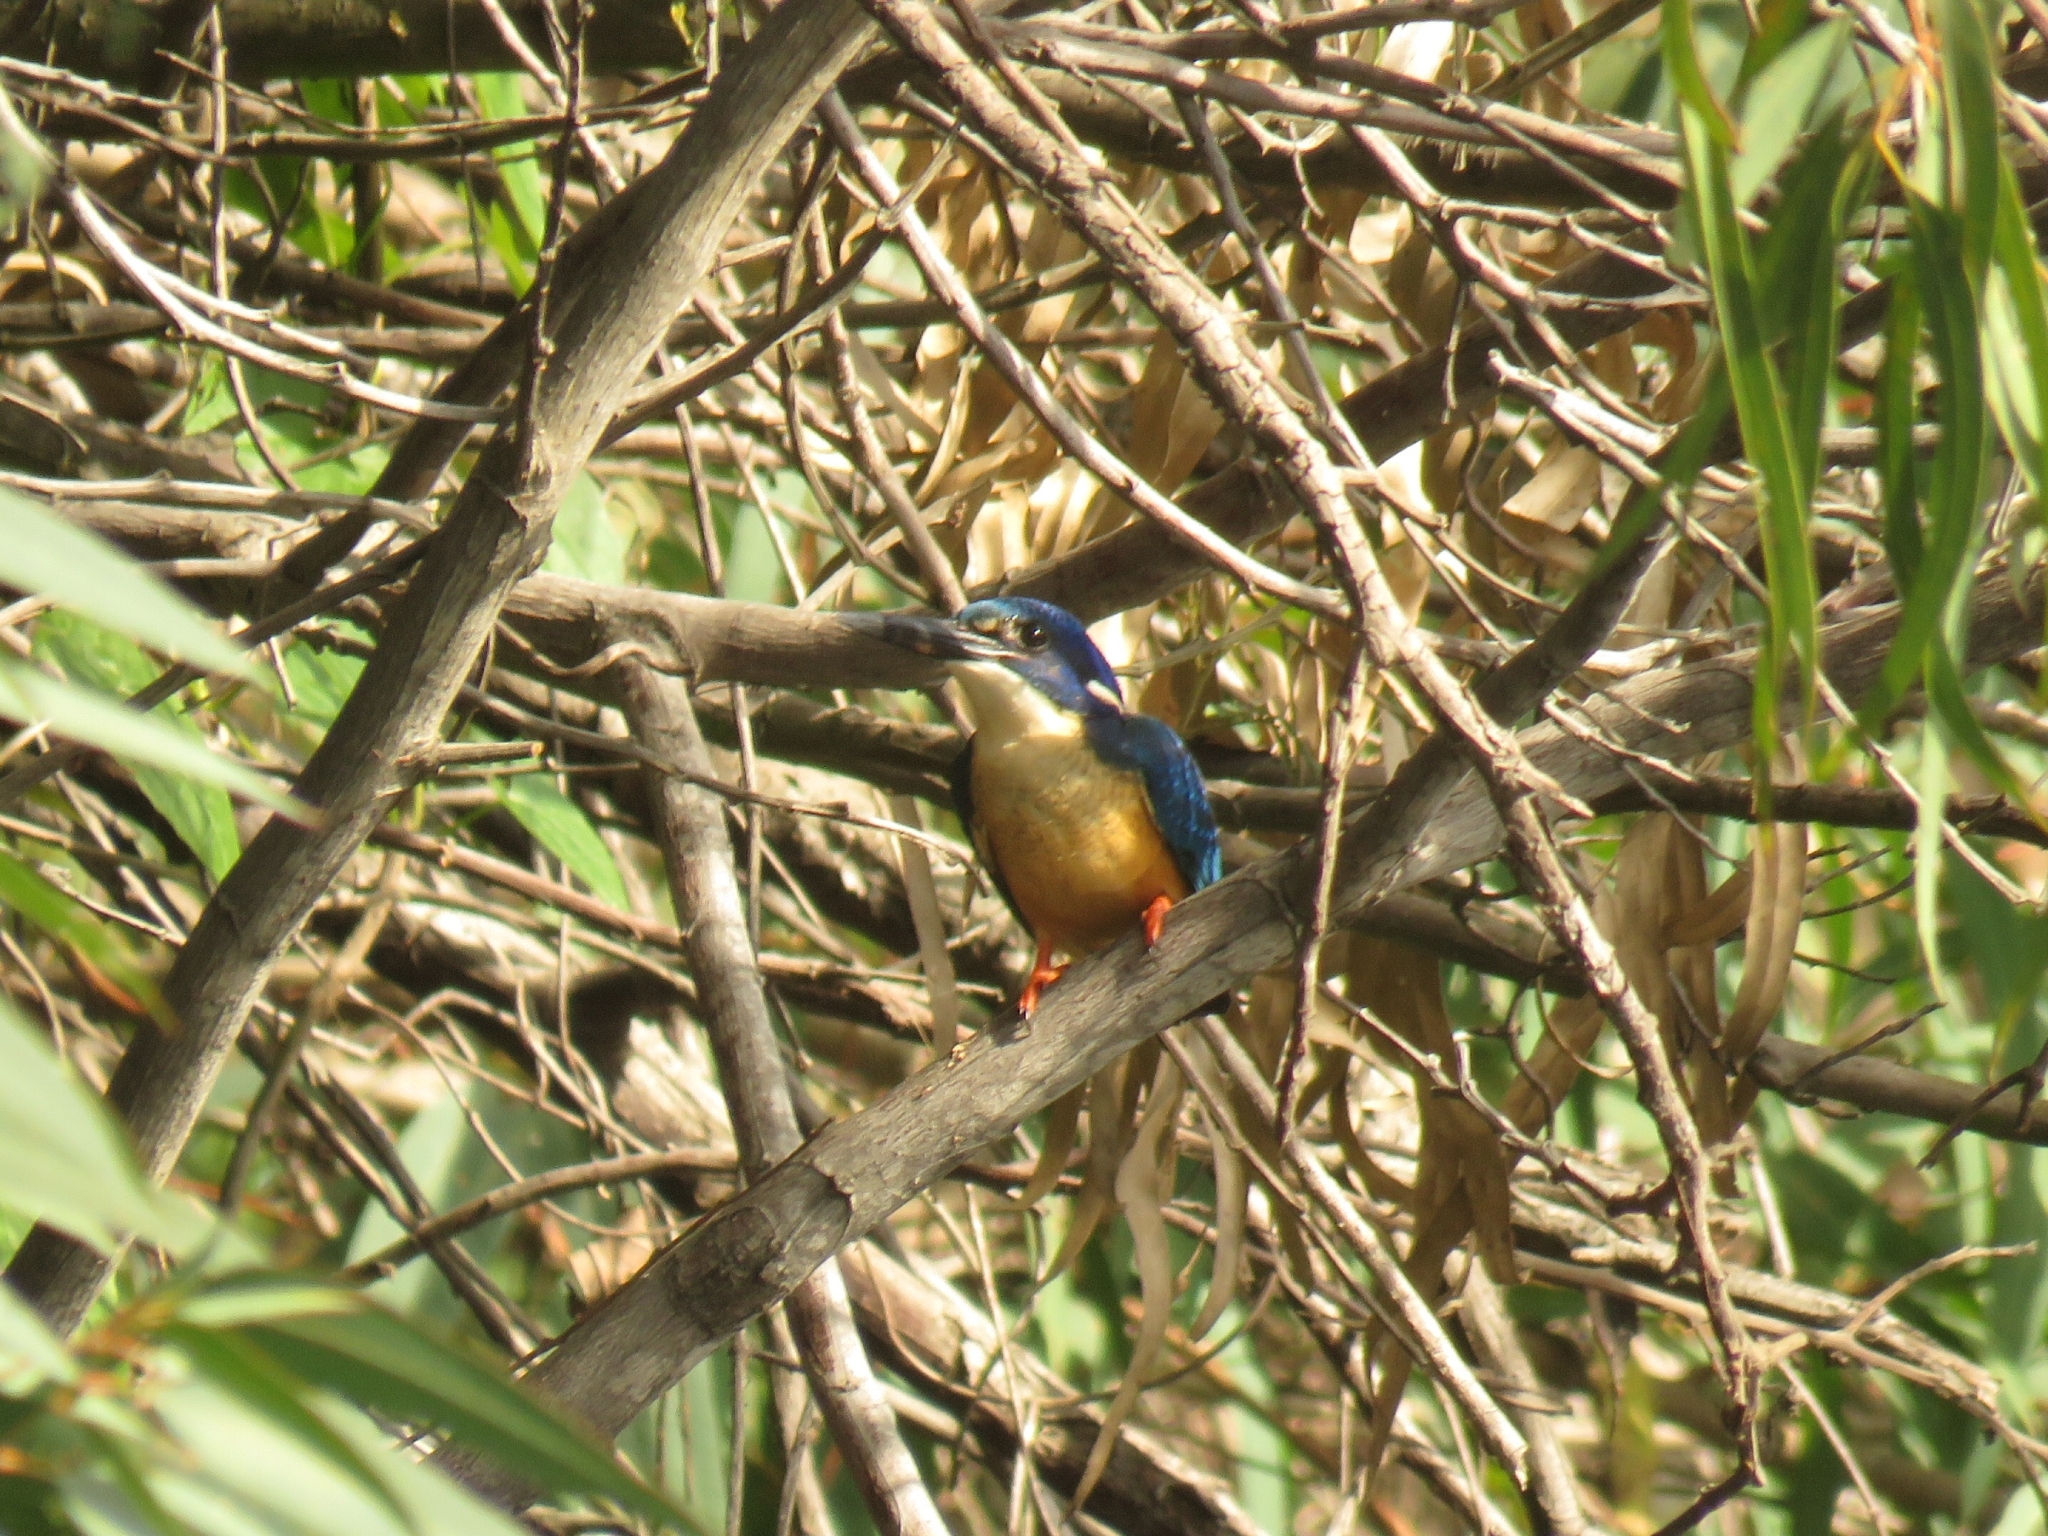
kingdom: Animalia
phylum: Chordata
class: Aves
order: Coraciiformes
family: Alcedinidae
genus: Alcedo
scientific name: Alcedo semitorquata
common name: Half-collared kingfisher
